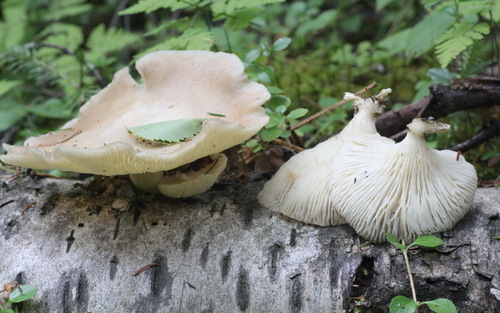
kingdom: Fungi
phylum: Basidiomycota
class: Agaricomycetes
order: Agaricales
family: Pleurotaceae
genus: Pleurotus
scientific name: Pleurotus pulmonarius
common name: Pale oyster
